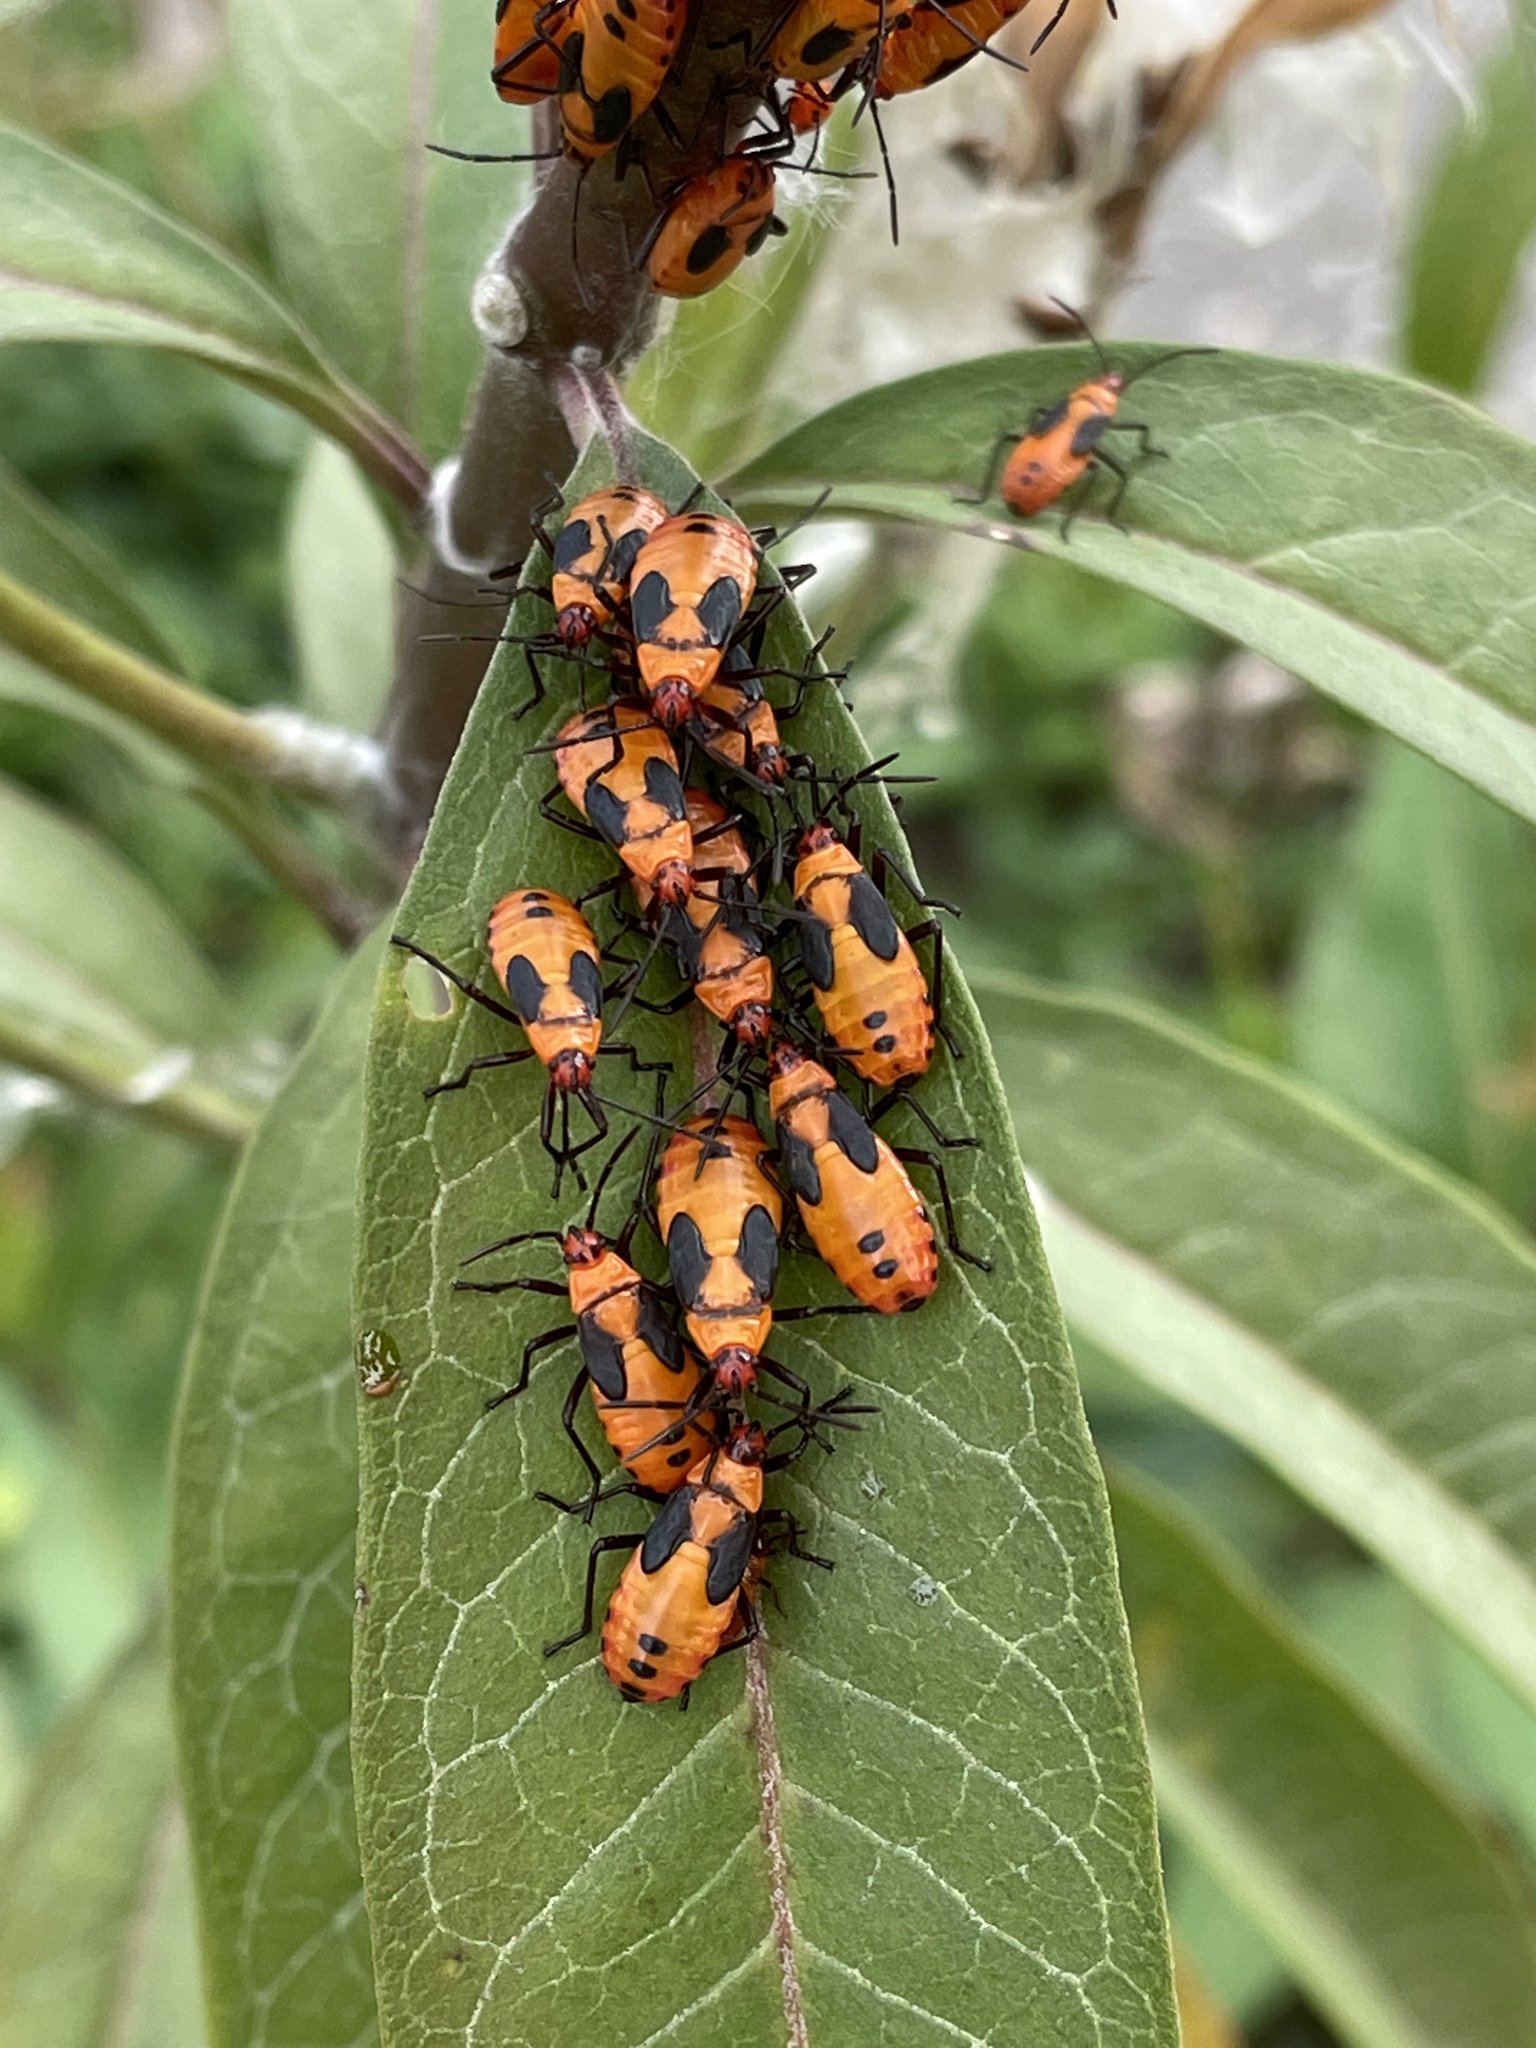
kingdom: Animalia
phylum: Arthropoda
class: Insecta
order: Hemiptera
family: Lygaeidae
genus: Oncopeltus
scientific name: Oncopeltus fasciatus
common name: Large milkweed bug
